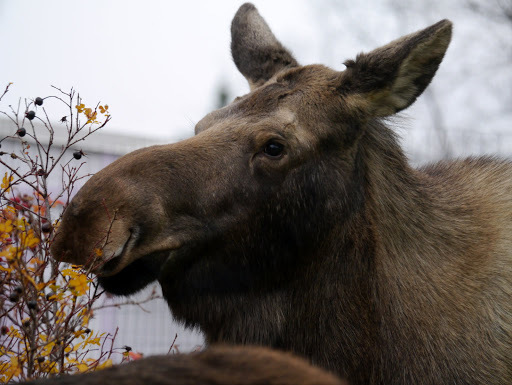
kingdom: Animalia
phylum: Chordata
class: Mammalia
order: Artiodactyla
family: Cervidae
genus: Alces
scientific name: Alces alces
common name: Moose
